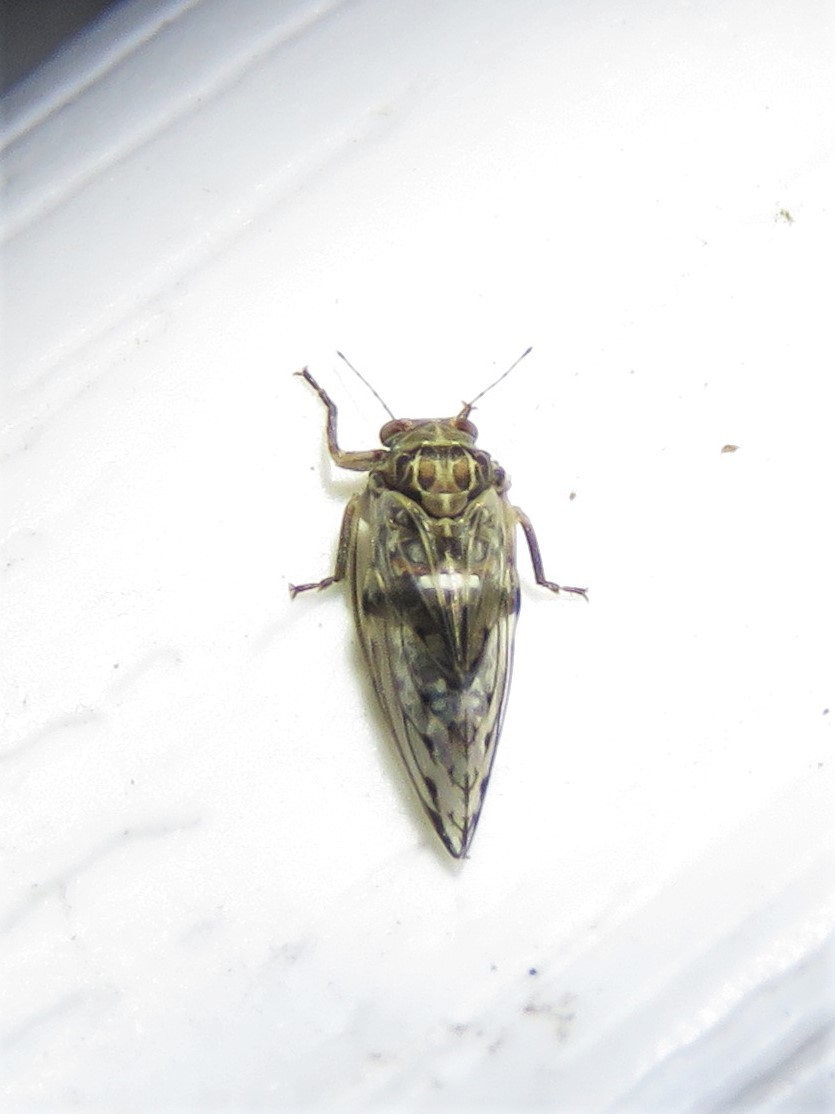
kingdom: Animalia
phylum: Arthropoda
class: Insecta
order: Hemiptera
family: Aphalaridae
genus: Pachypsylla
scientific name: Pachypsylla venusta
